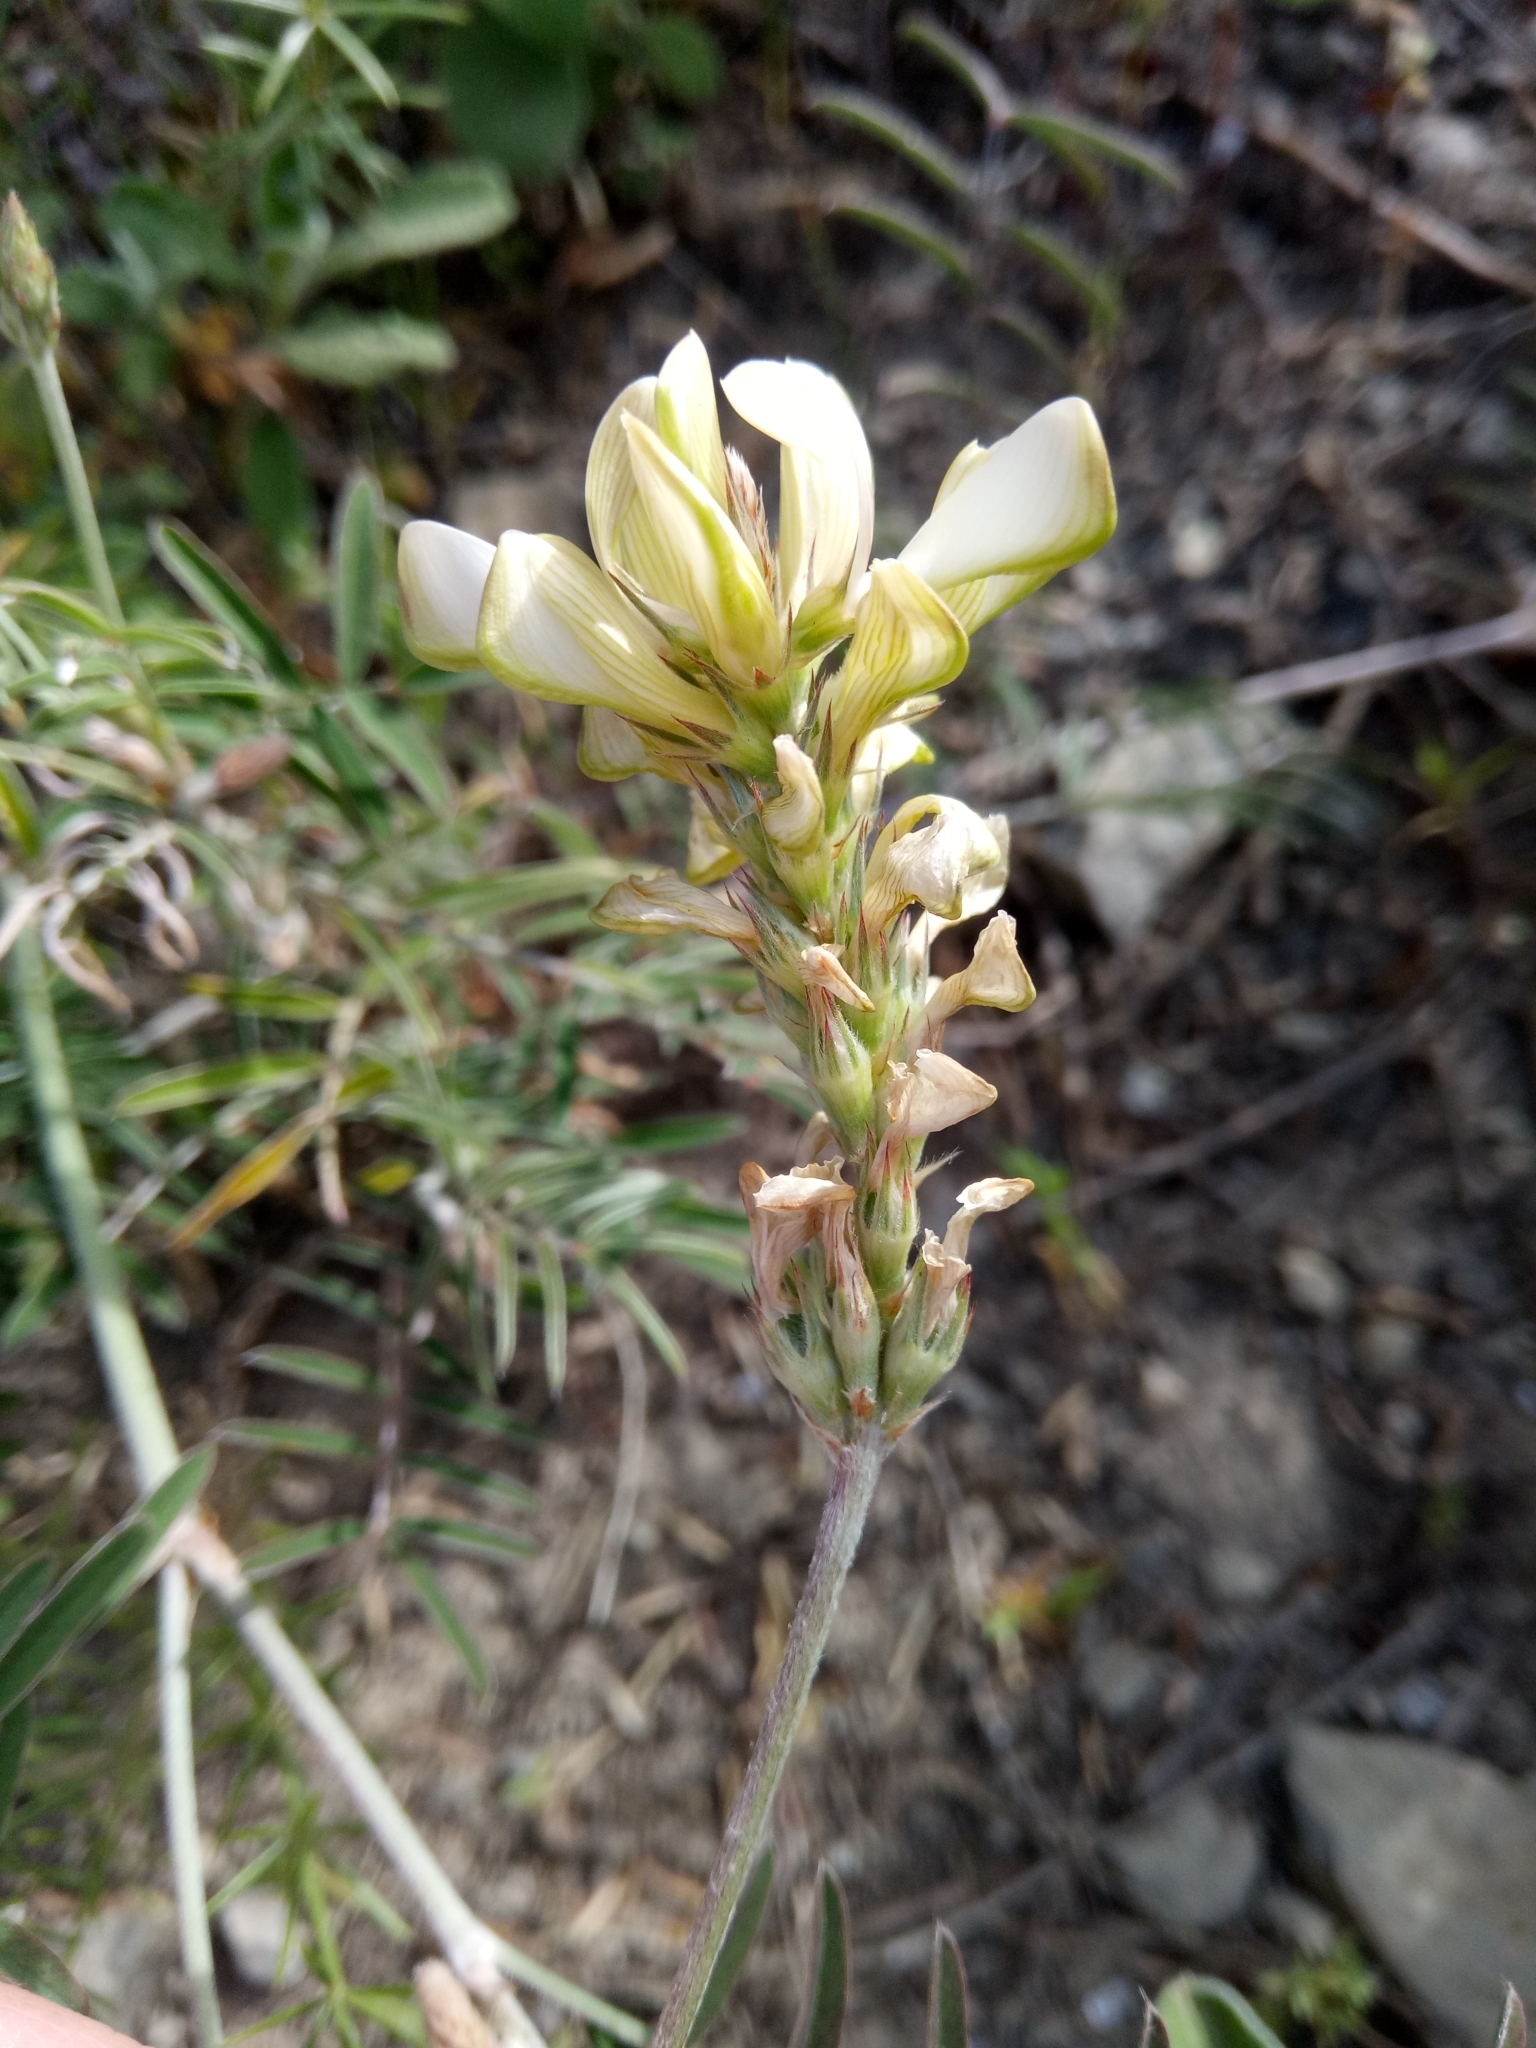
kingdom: Plantae
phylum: Tracheophyta
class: Magnoliopsida
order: Fabales
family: Fabaceae
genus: Onobrychis
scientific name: Onobrychis alba
